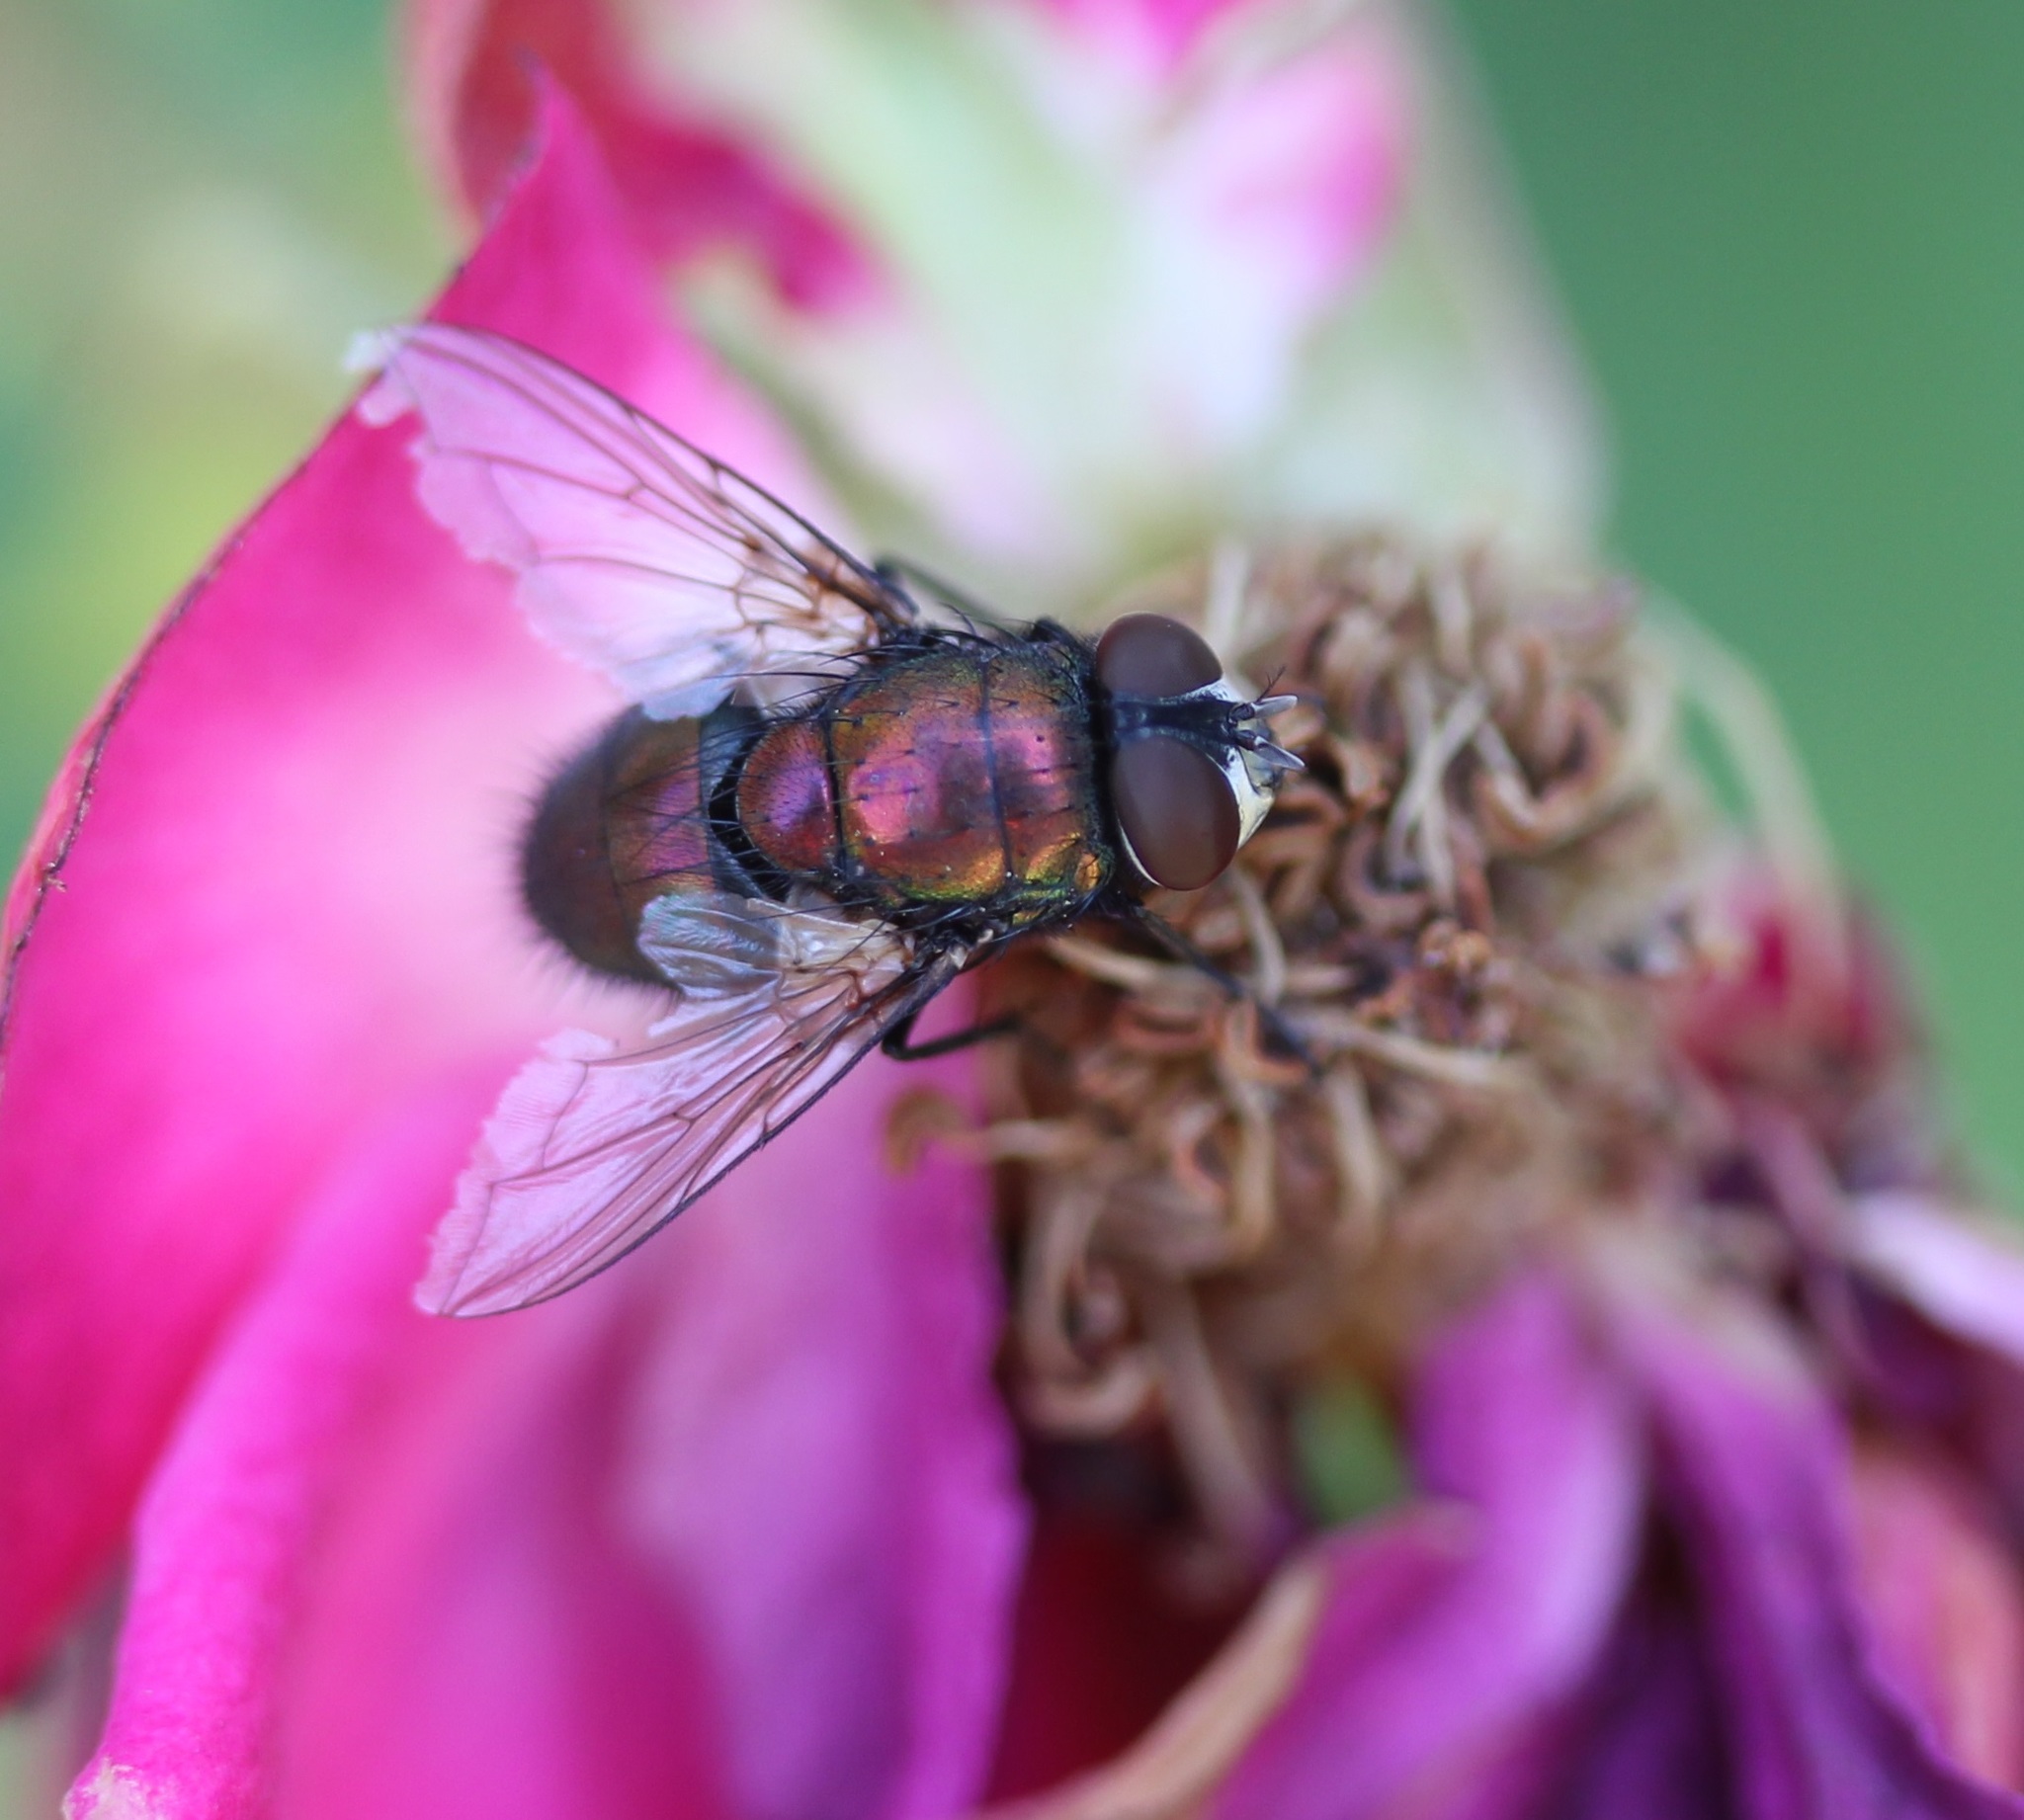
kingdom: Animalia
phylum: Arthropoda
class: Insecta
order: Diptera
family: Calliphoridae
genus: Lucilia
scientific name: Lucilia sericata
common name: Blow fly
